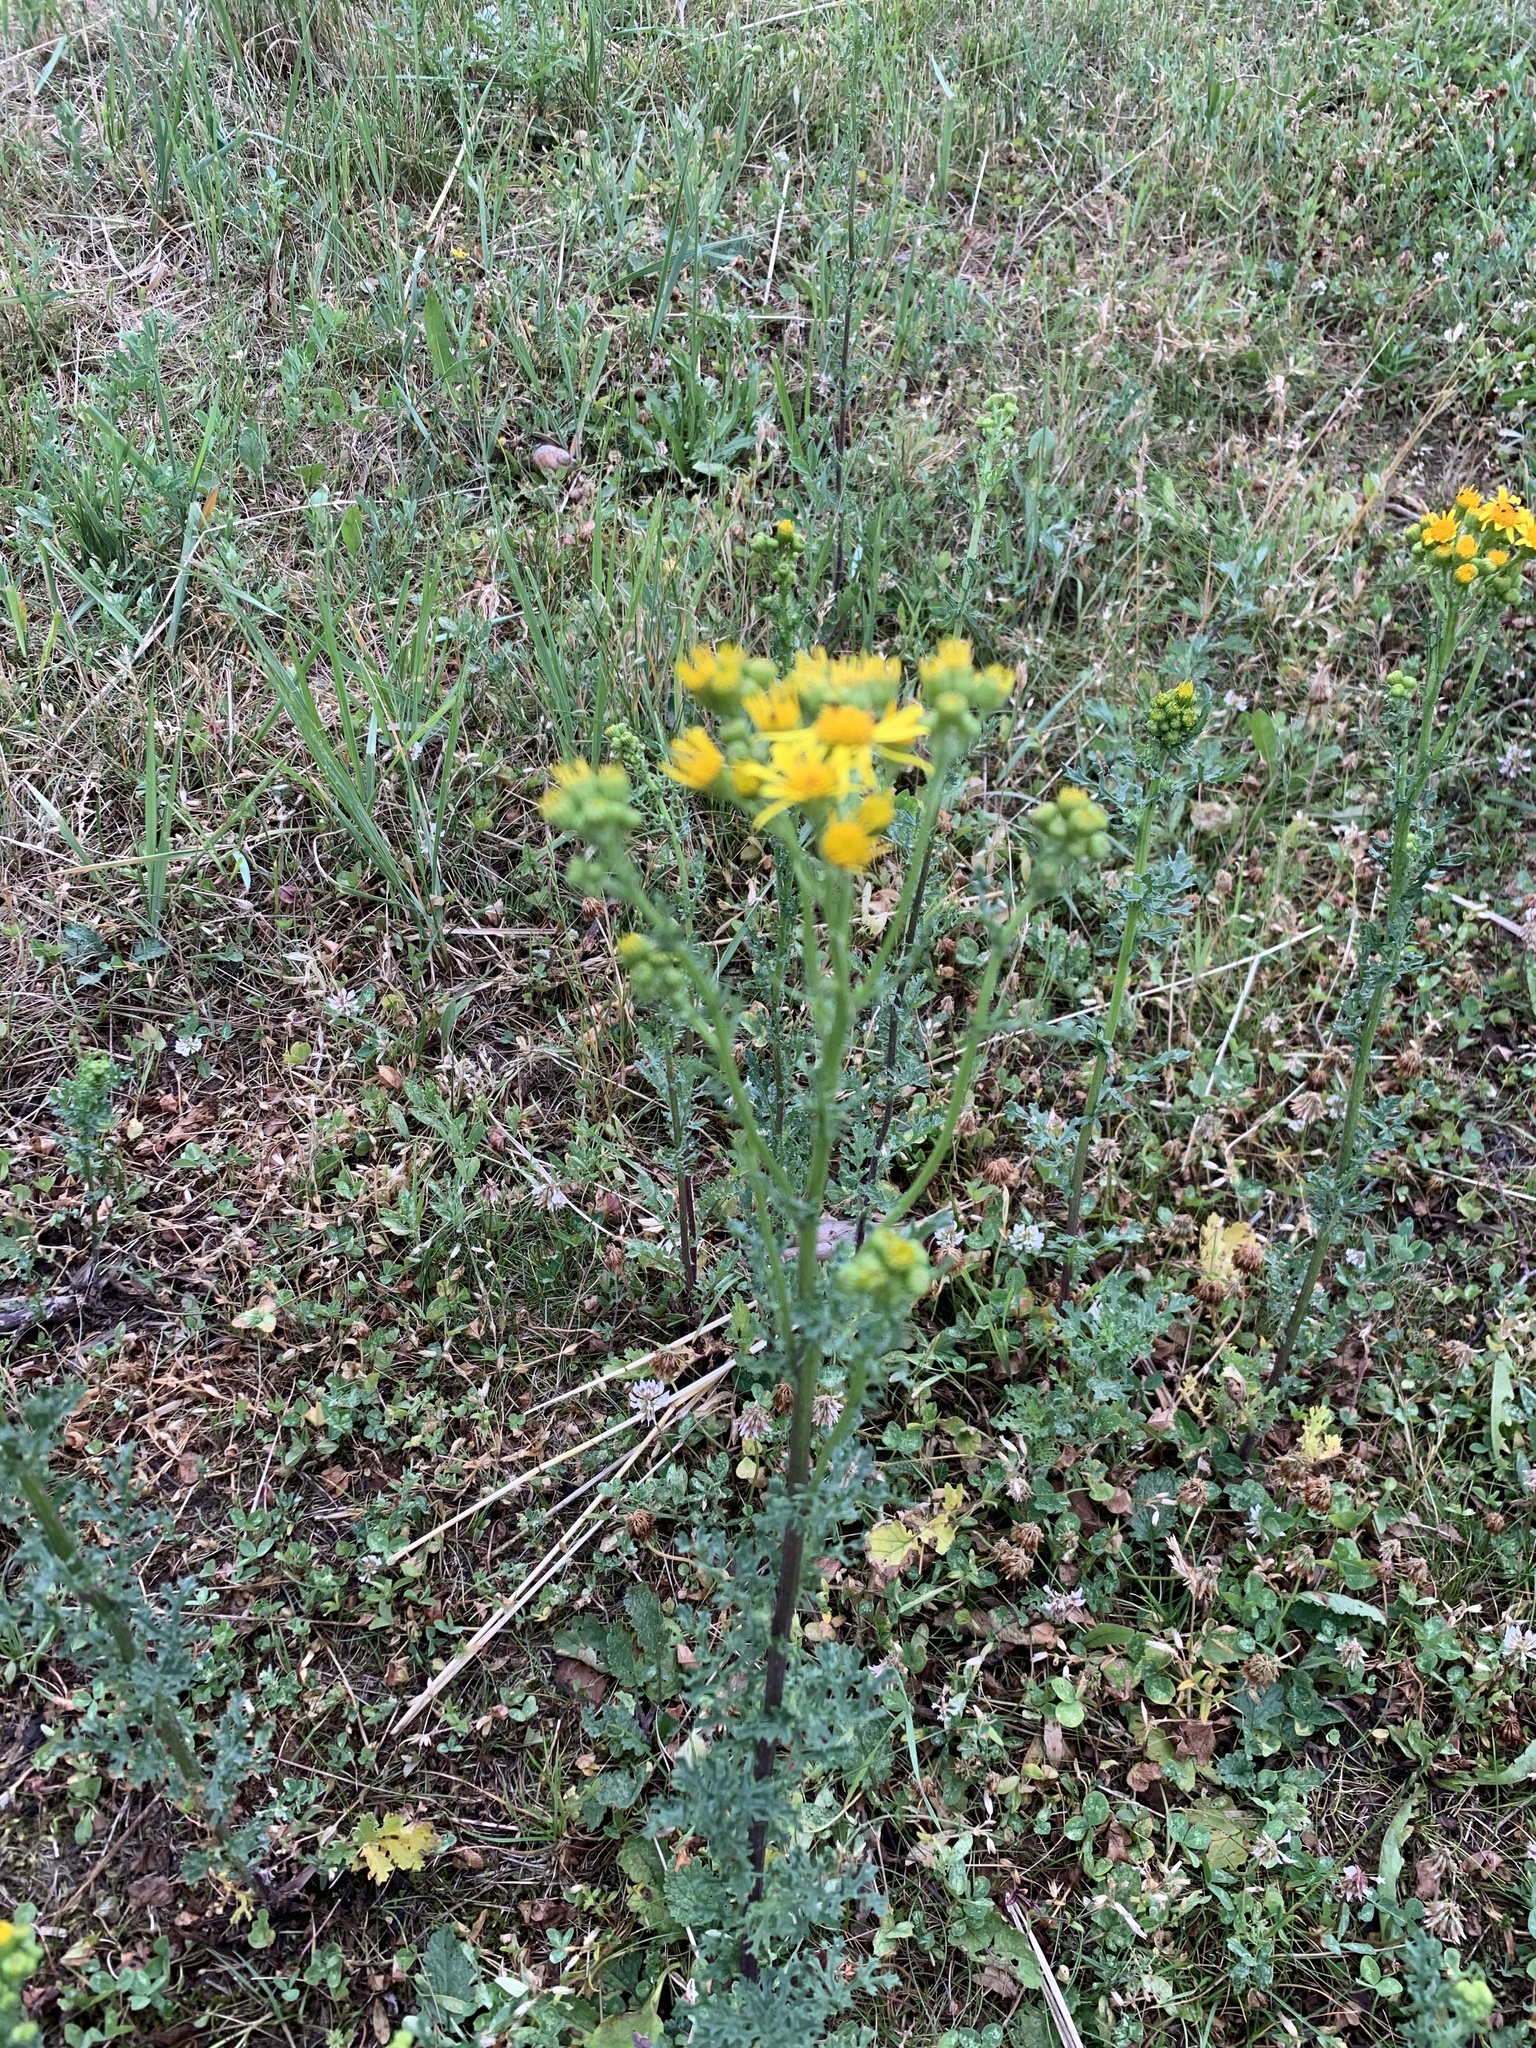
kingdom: Plantae
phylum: Tracheophyta
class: Magnoliopsida
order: Asterales
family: Asteraceae
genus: Jacobaea
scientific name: Jacobaea vulgaris
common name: Stinking willie
